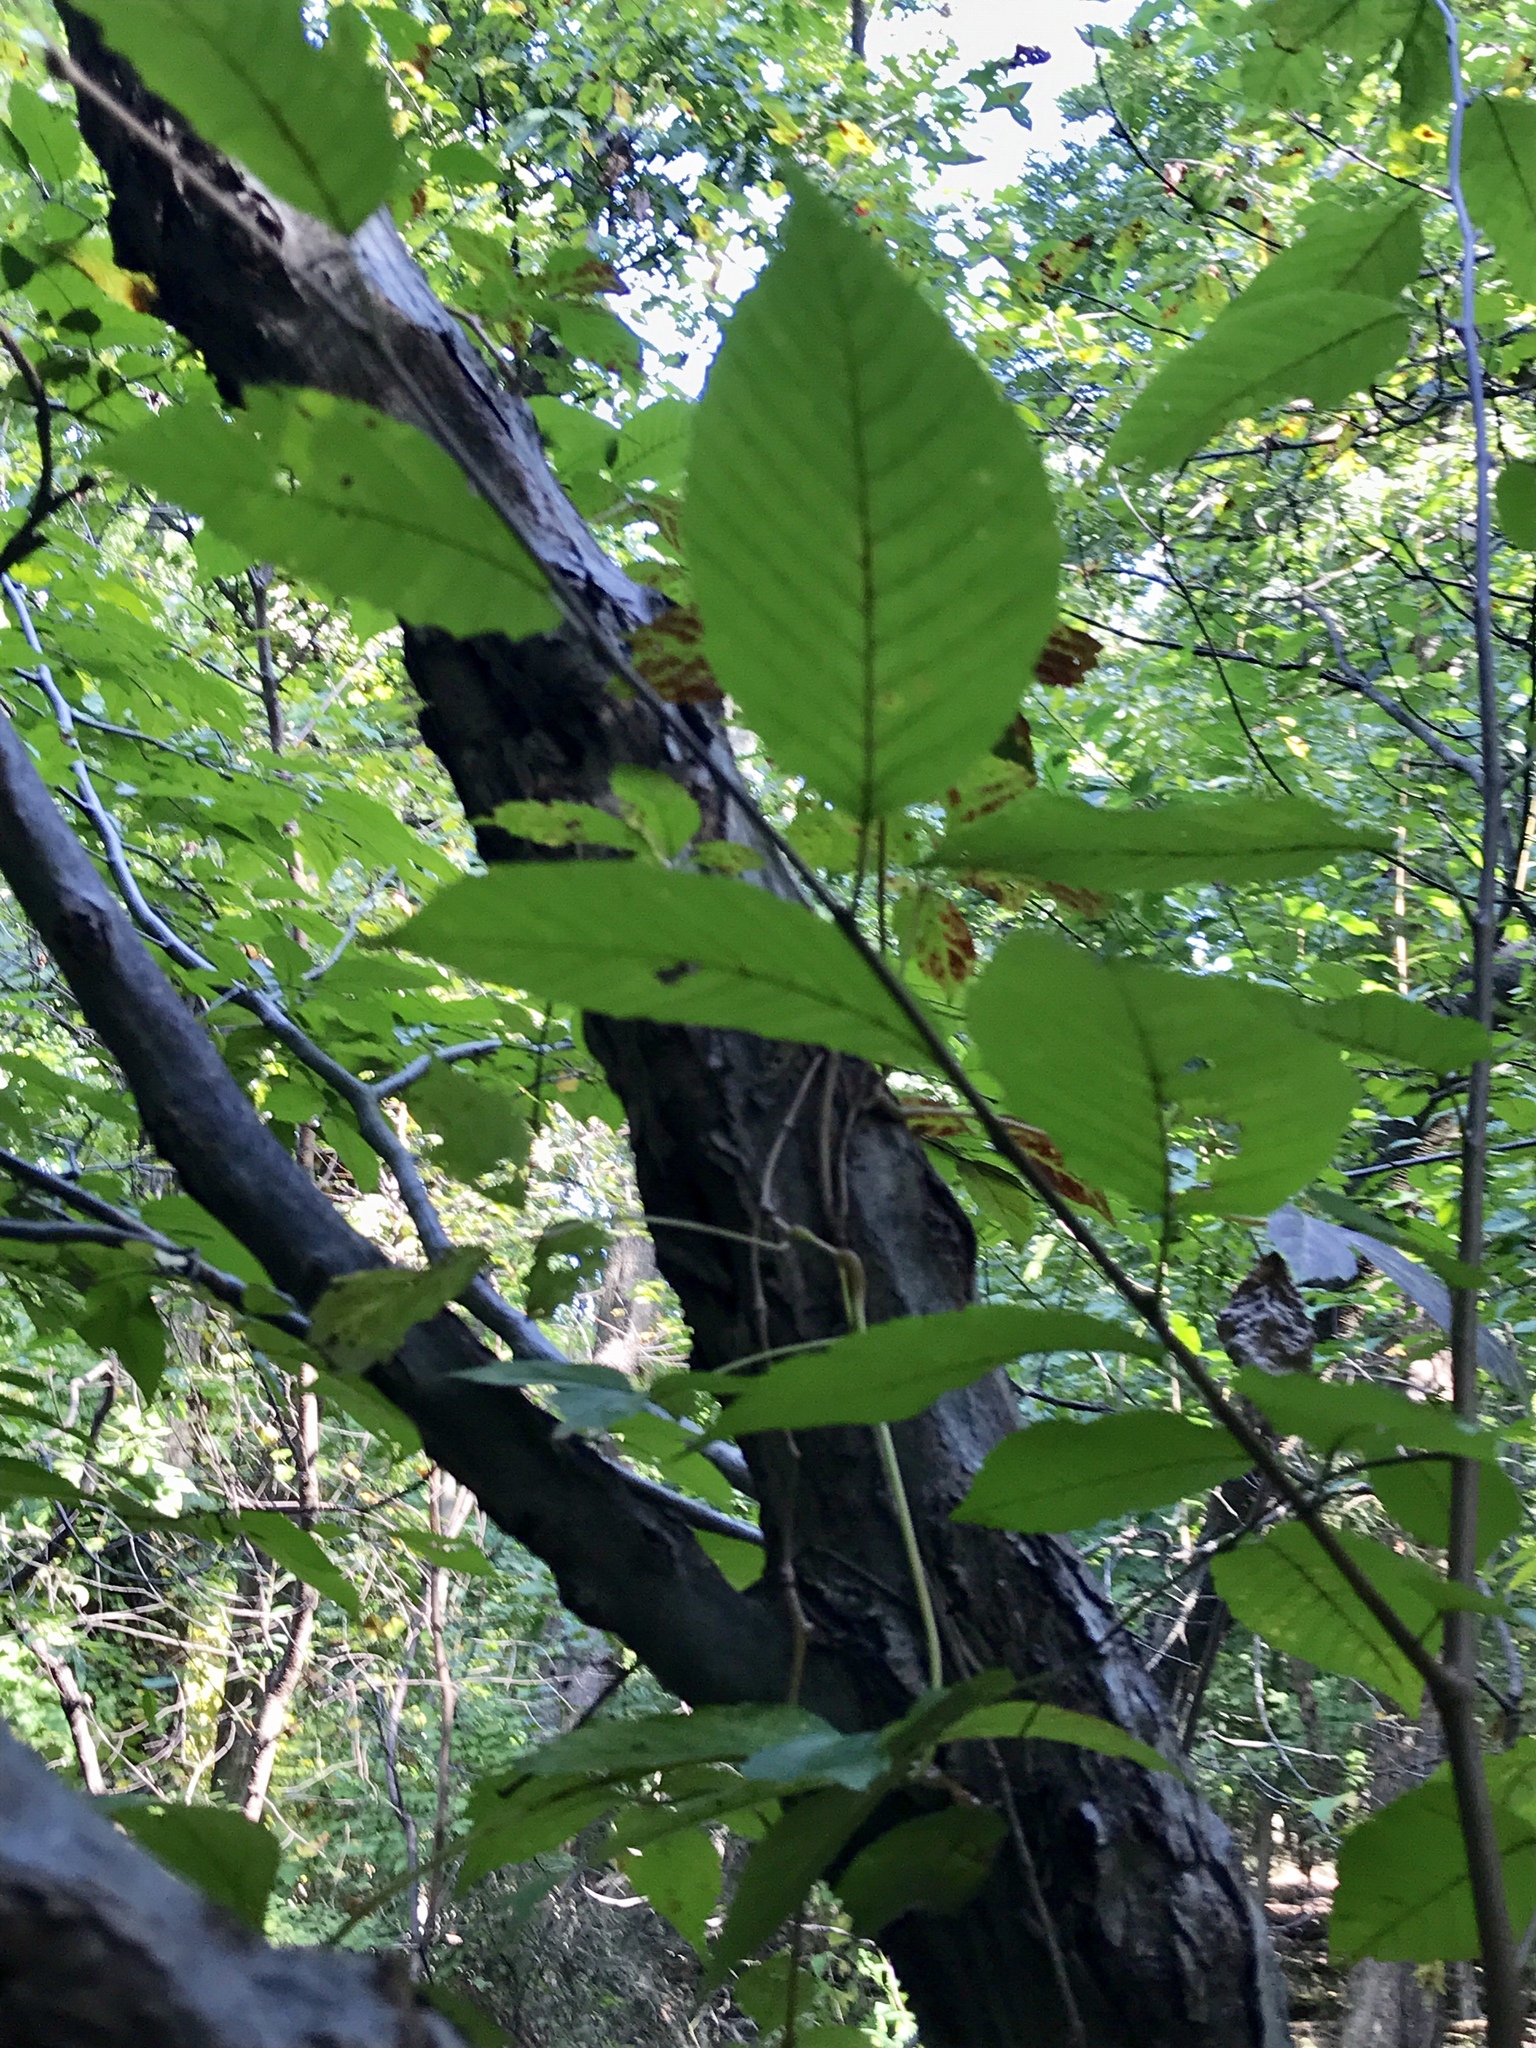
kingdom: Plantae
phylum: Tracheophyta
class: Magnoliopsida
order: Fagales
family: Betulaceae
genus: Carpinus
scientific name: Carpinus caroliniana
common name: American hornbeam
